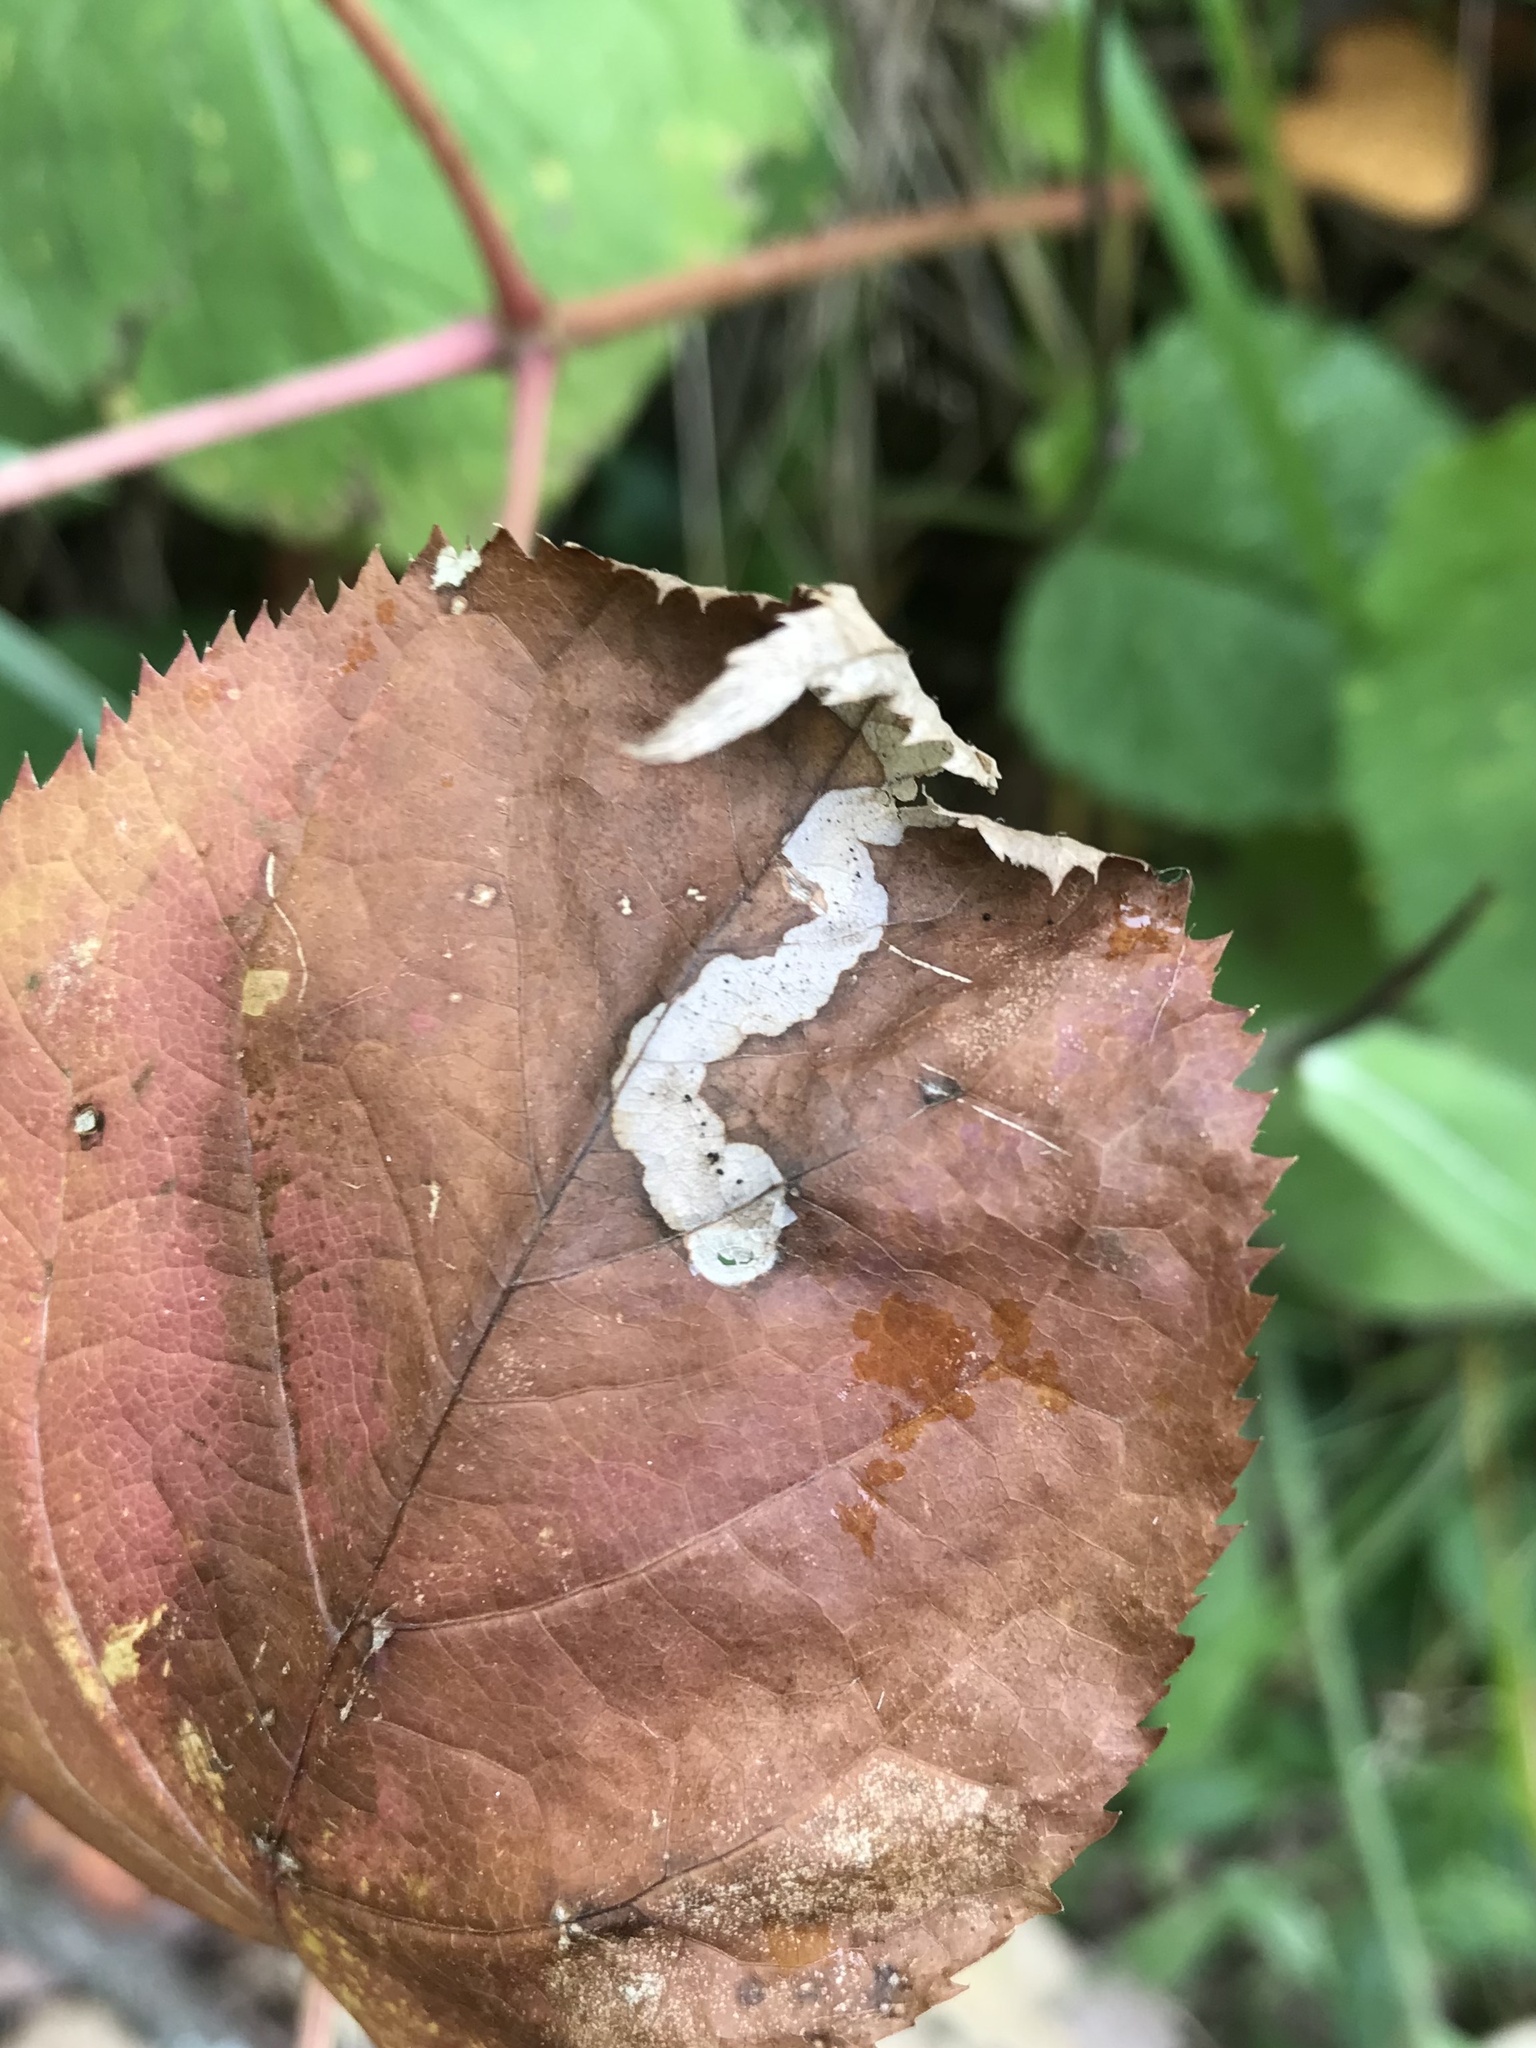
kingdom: Animalia
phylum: Arthropoda
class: Insecta
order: Diptera
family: Agromyzidae
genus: Phytomyza
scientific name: Phytomyza aralivora
